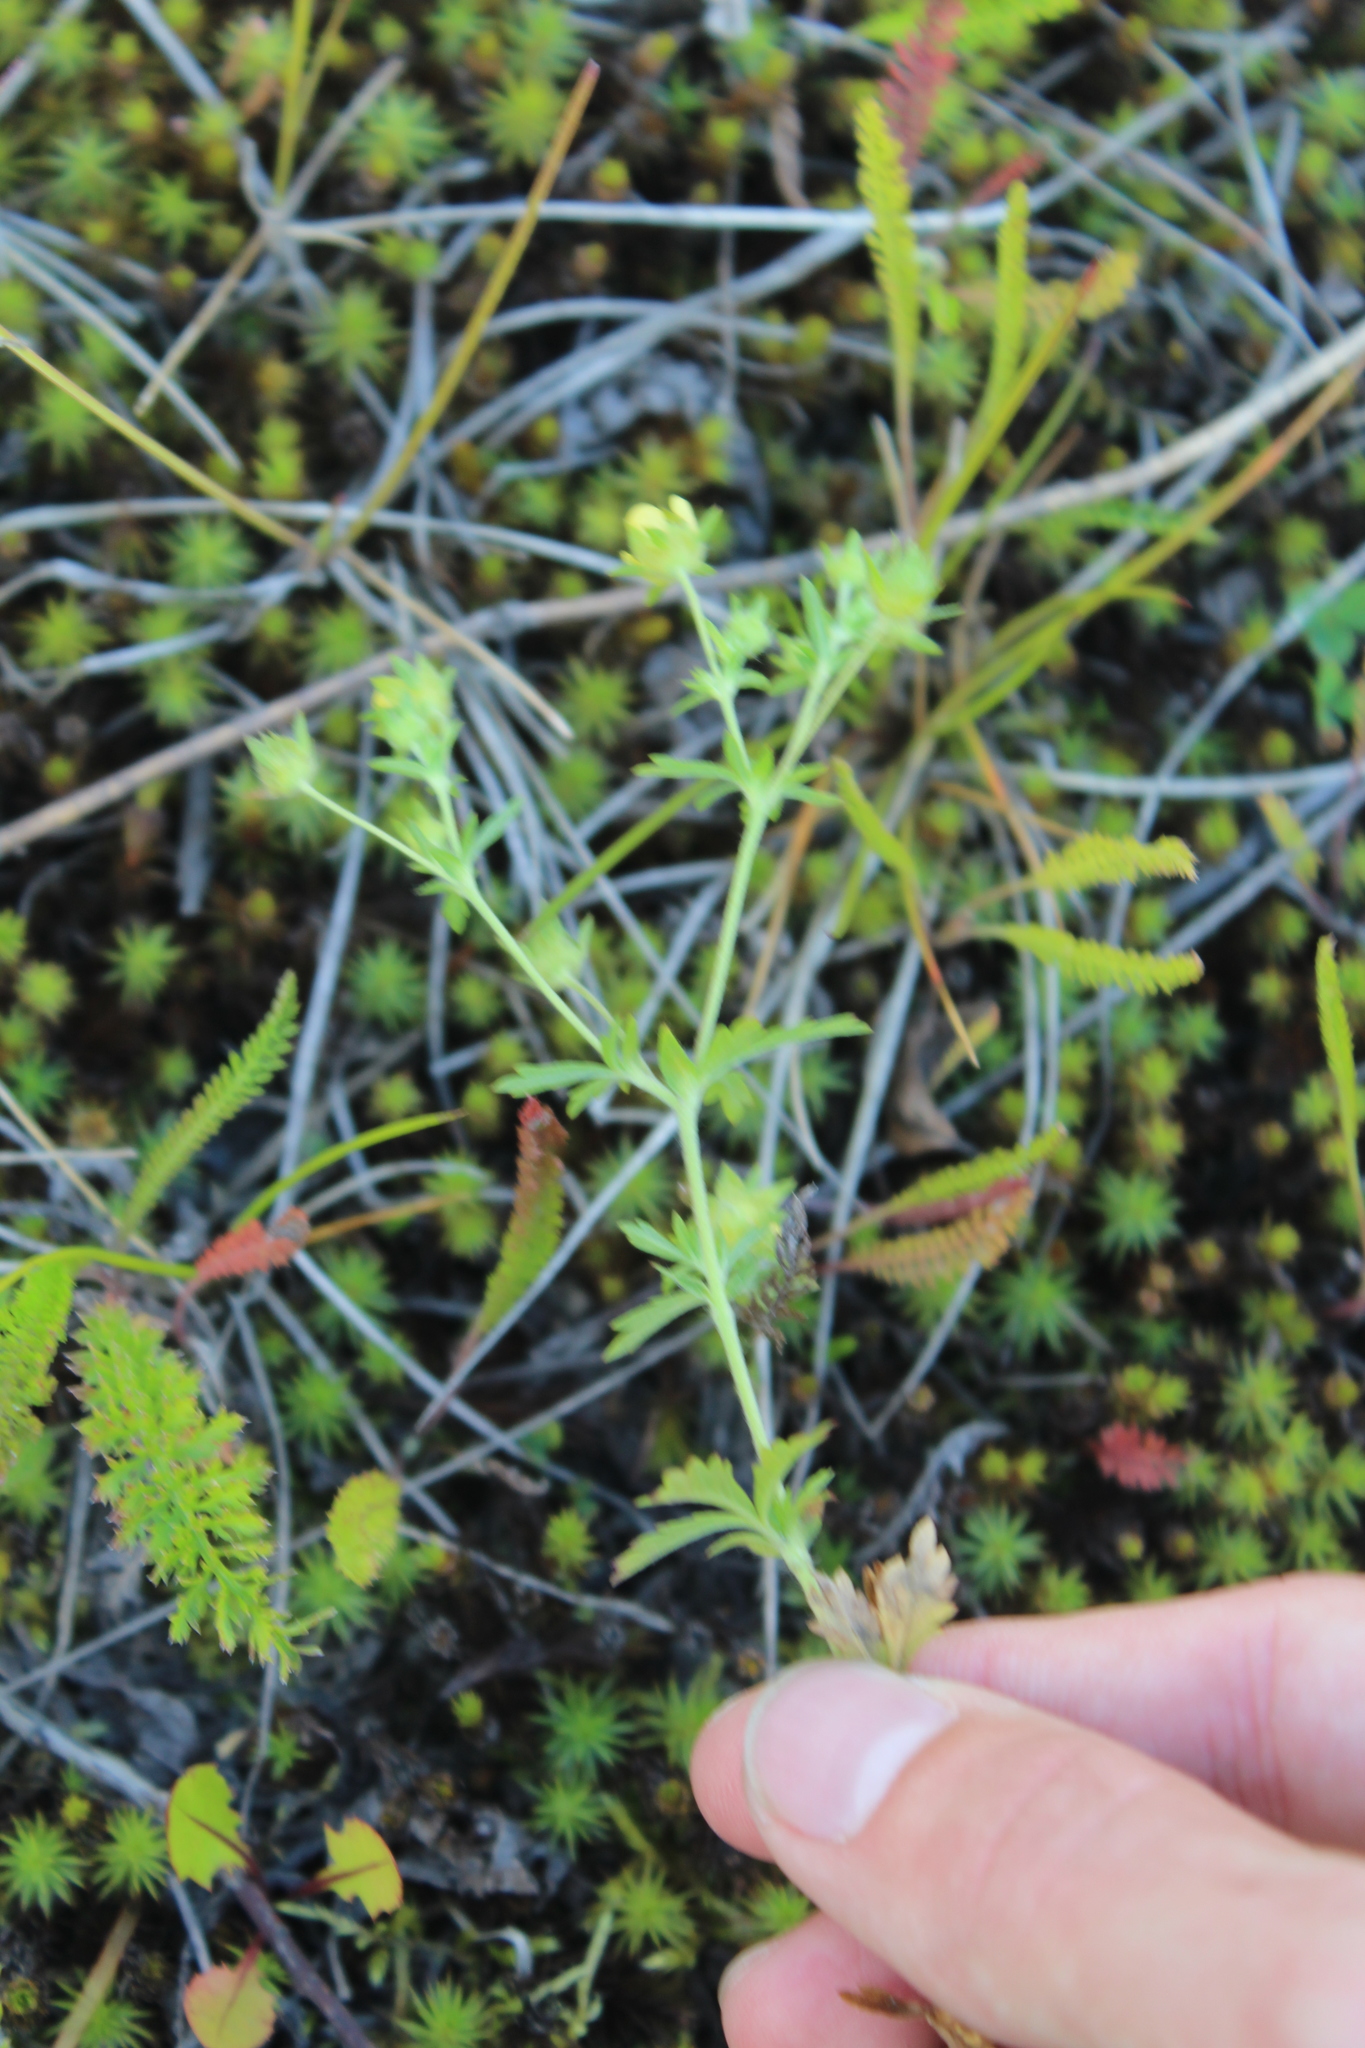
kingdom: Plantae
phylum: Tracheophyta
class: Magnoliopsida
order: Rosales
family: Rosaceae
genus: Potentilla
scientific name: Potentilla intermedia
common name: Downy cinquefoil
